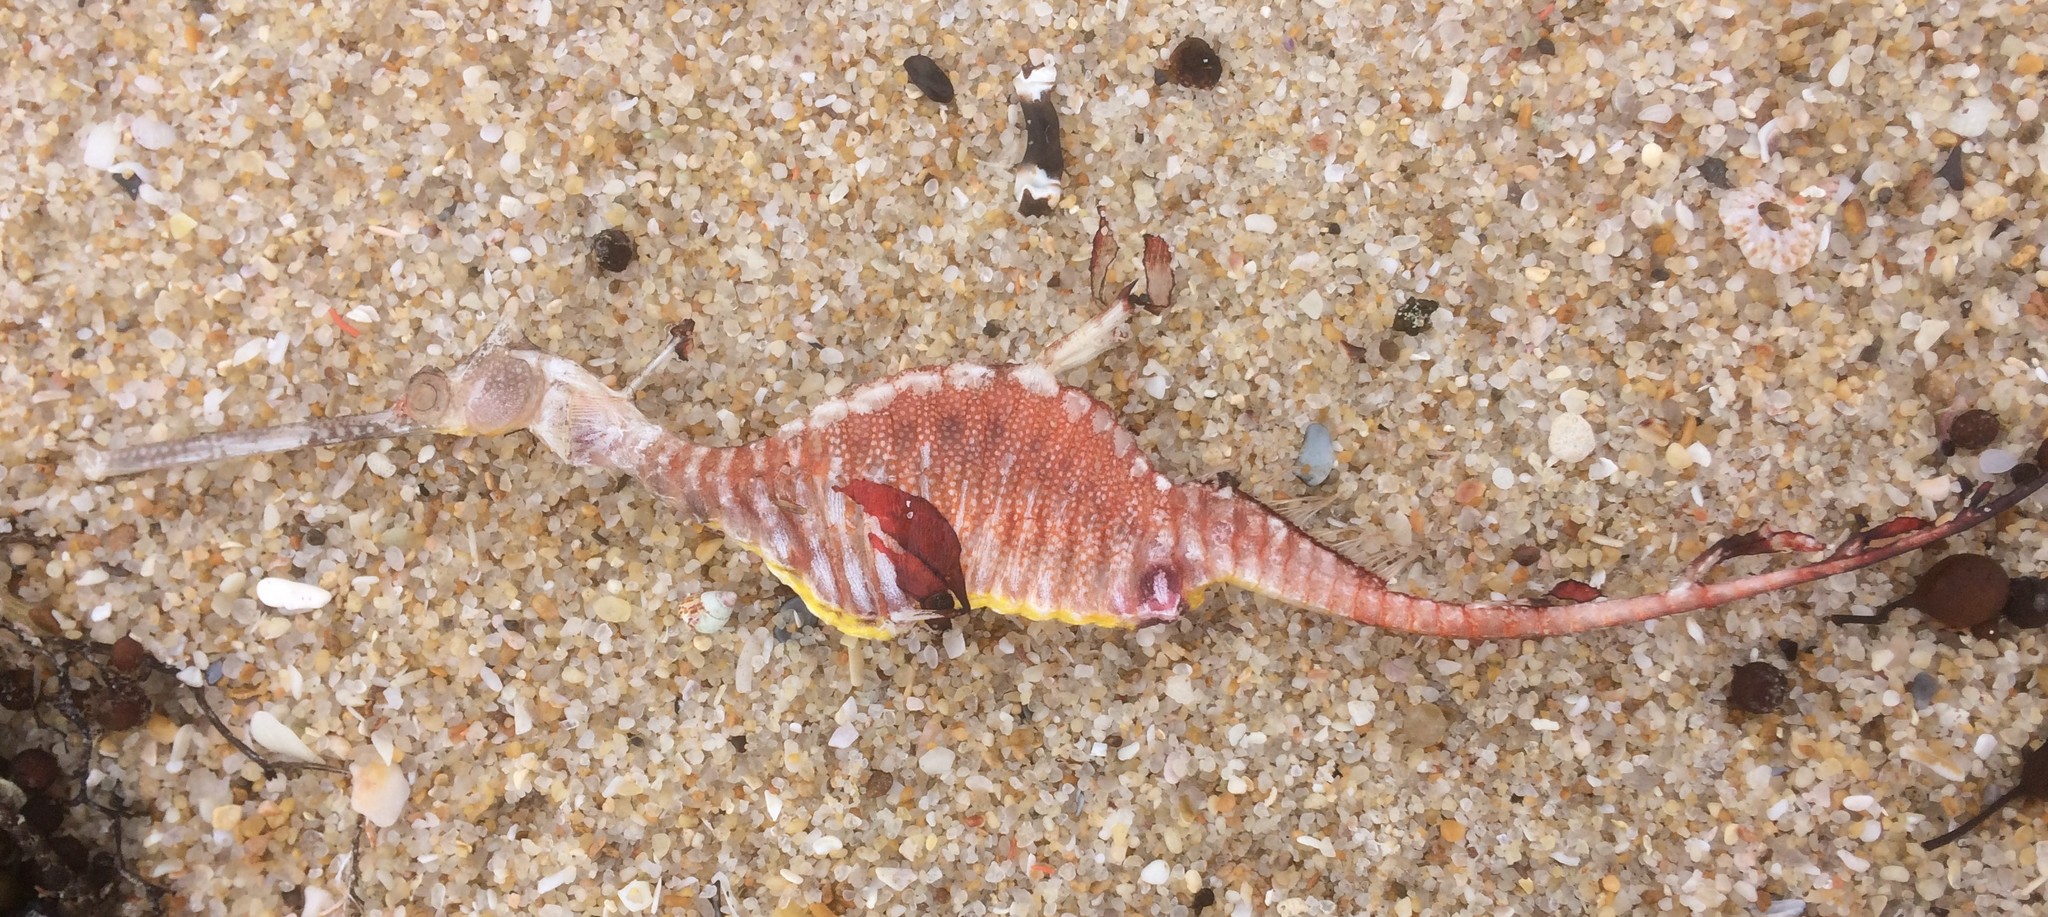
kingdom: Animalia
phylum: Chordata
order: Syngnathiformes
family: Syngnathidae
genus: Phyllopteryx
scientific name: Phyllopteryx taeniolatus
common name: Common seadragon
